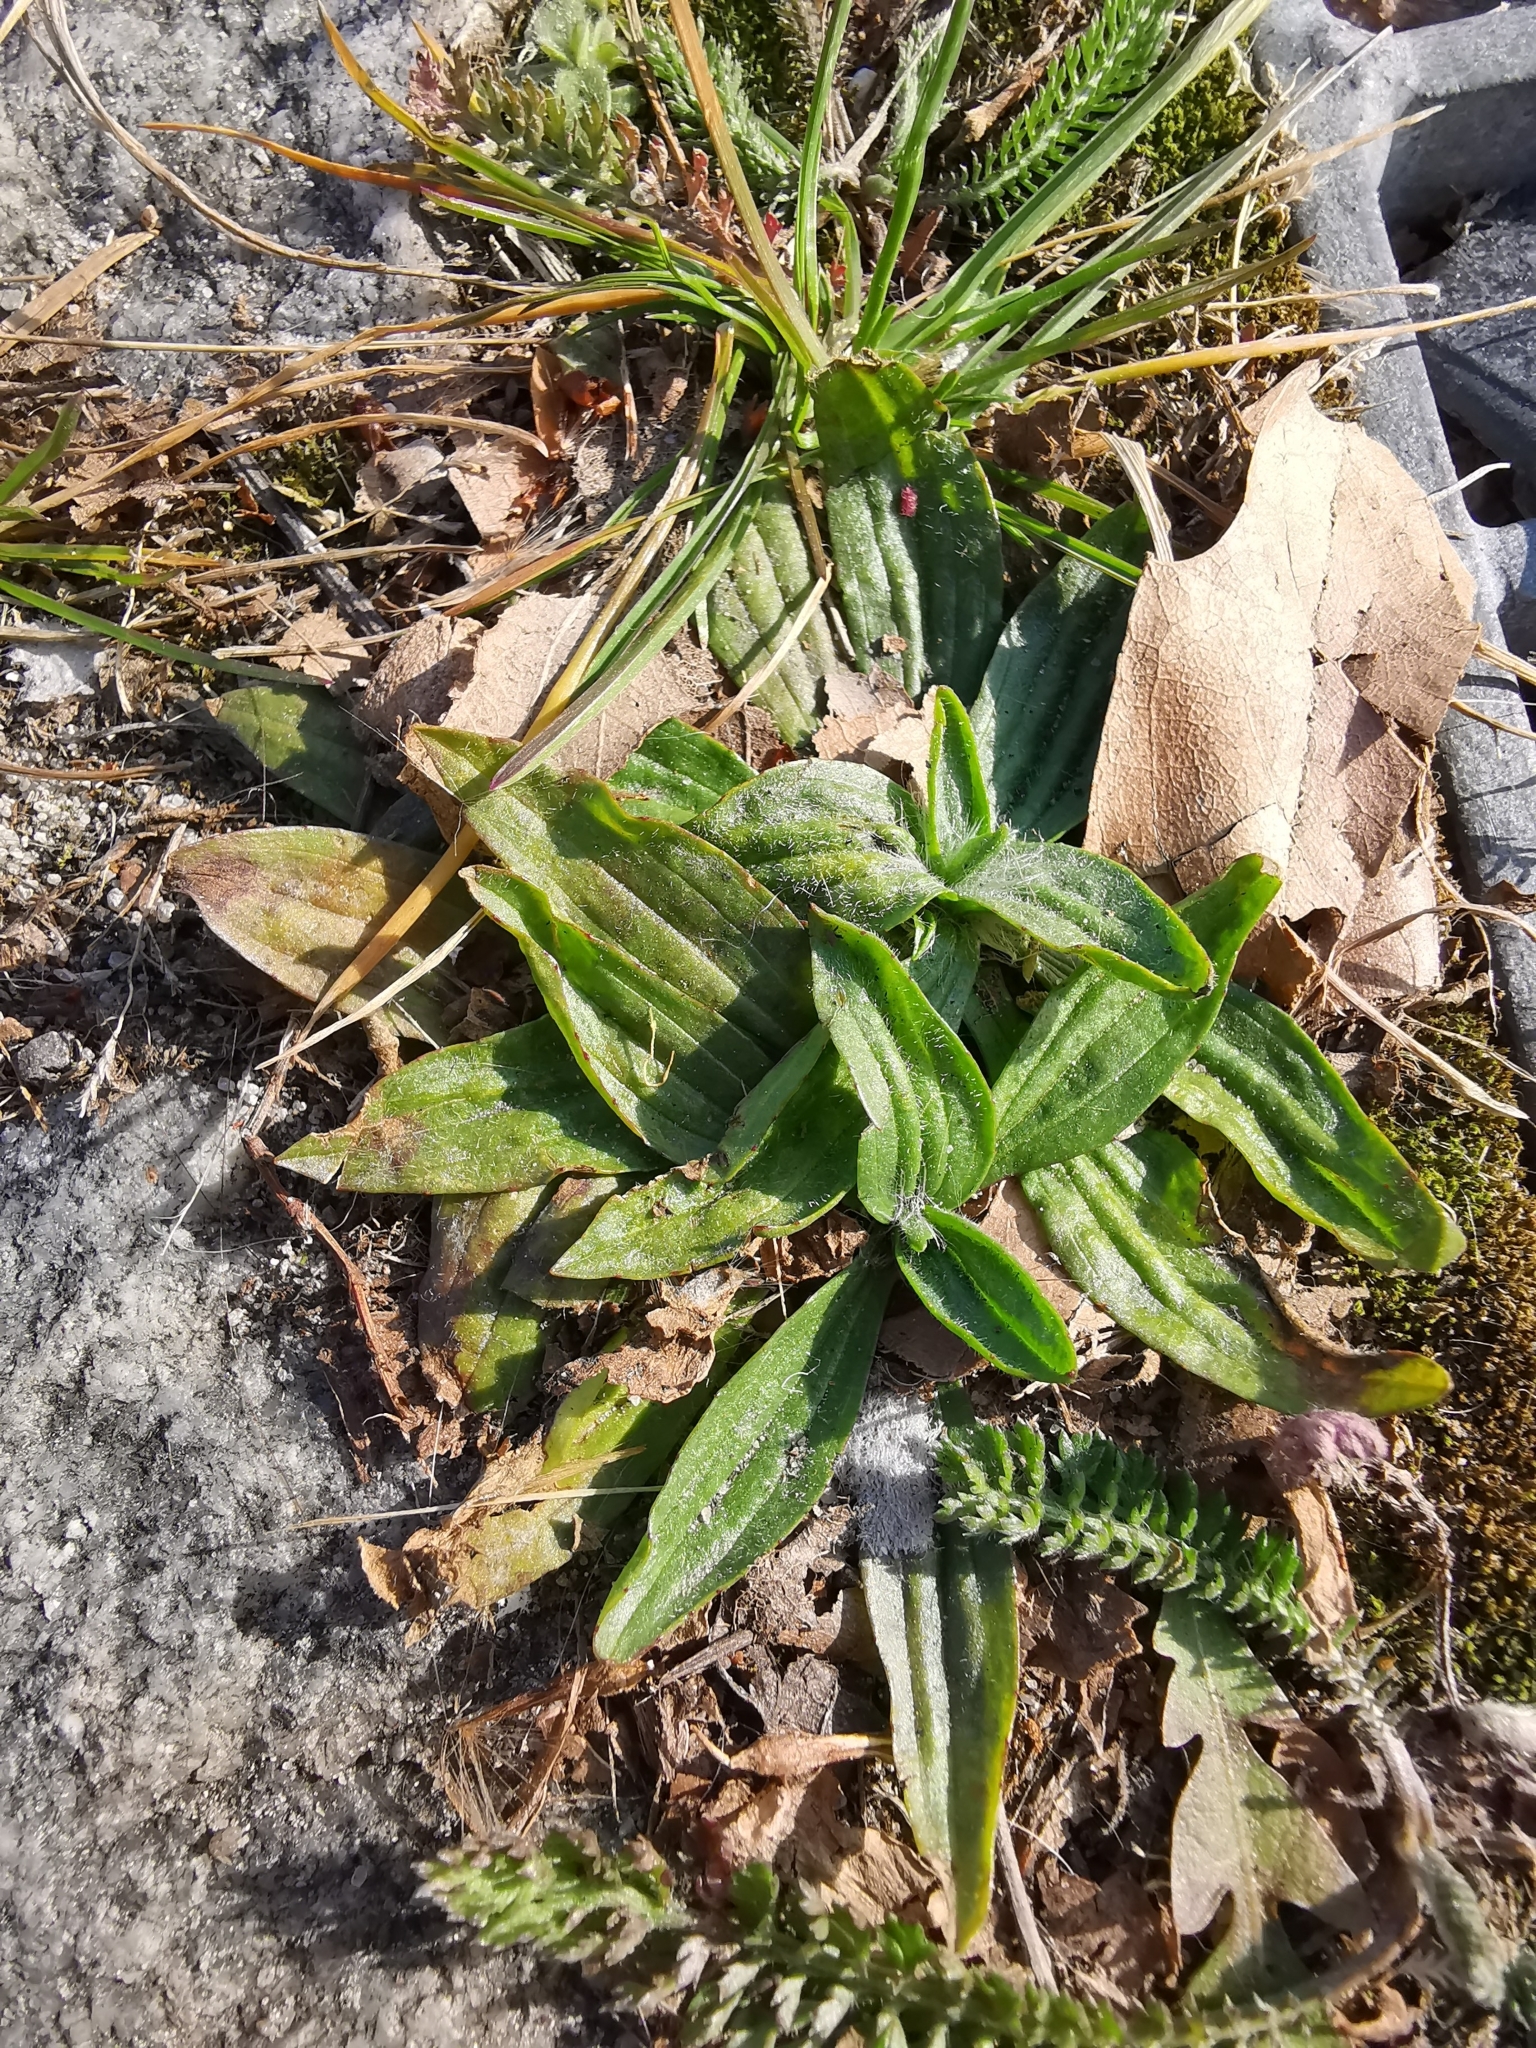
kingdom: Plantae
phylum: Tracheophyta
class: Magnoliopsida
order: Lamiales
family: Plantaginaceae
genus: Plantago
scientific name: Plantago lanceolata
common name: Ribwort plantain
